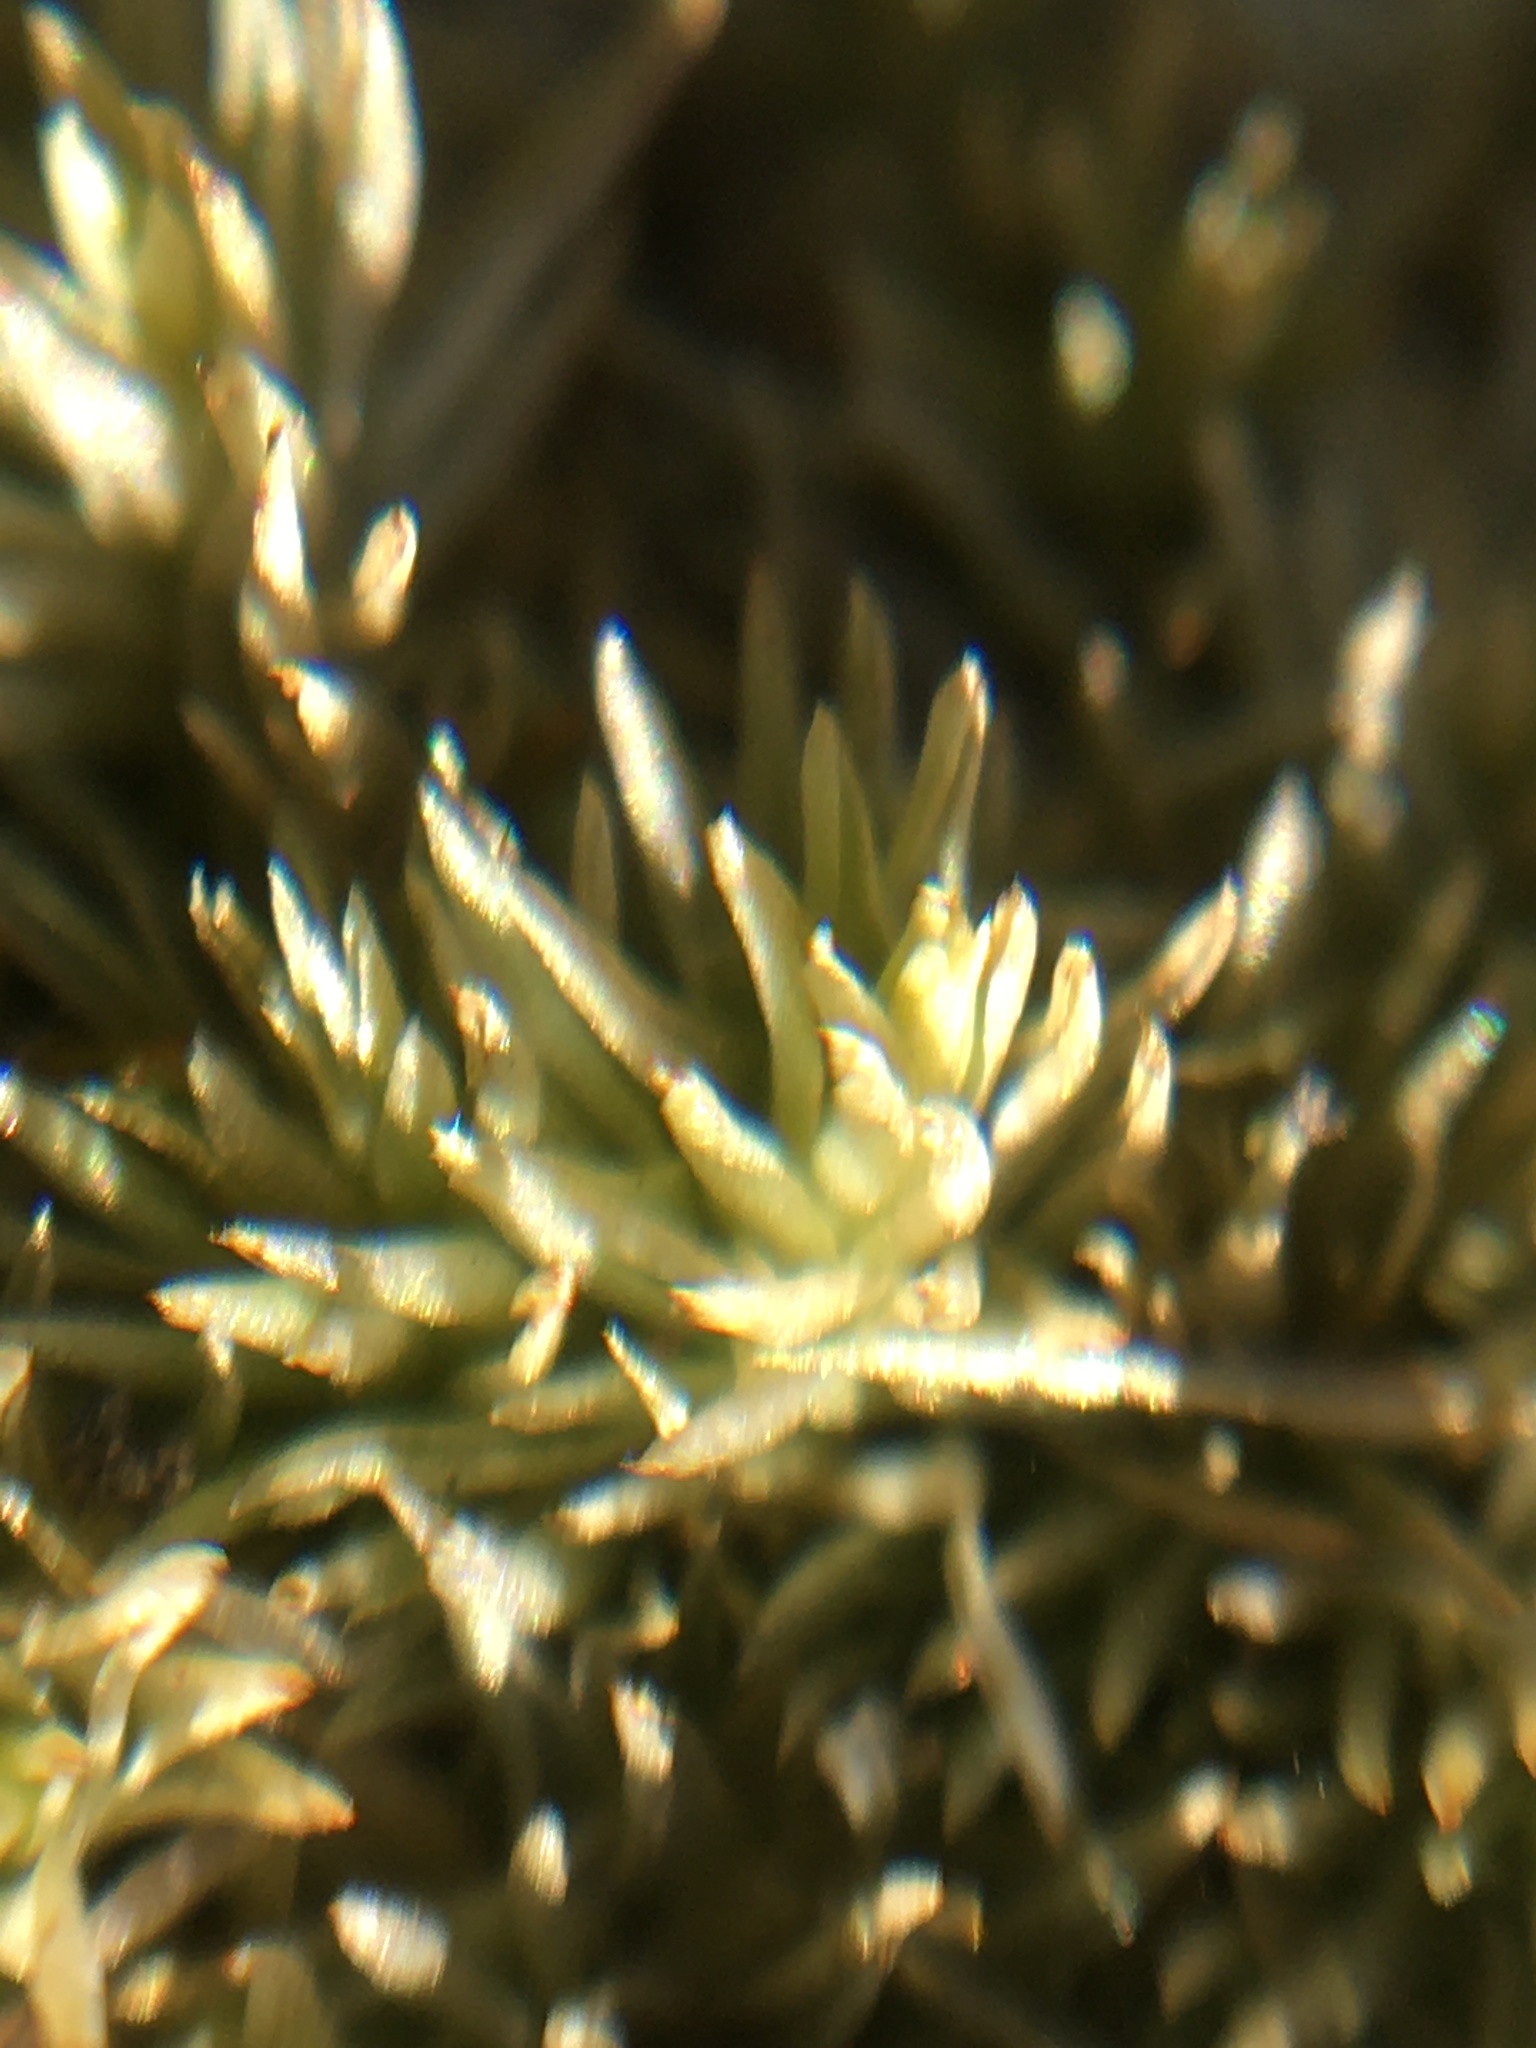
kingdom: Plantae
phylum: Bryophyta
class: Bryopsida
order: Dicranales
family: Leucobryaceae
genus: Leucobryum
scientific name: Leucobryum glaucum
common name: Large white-moss
